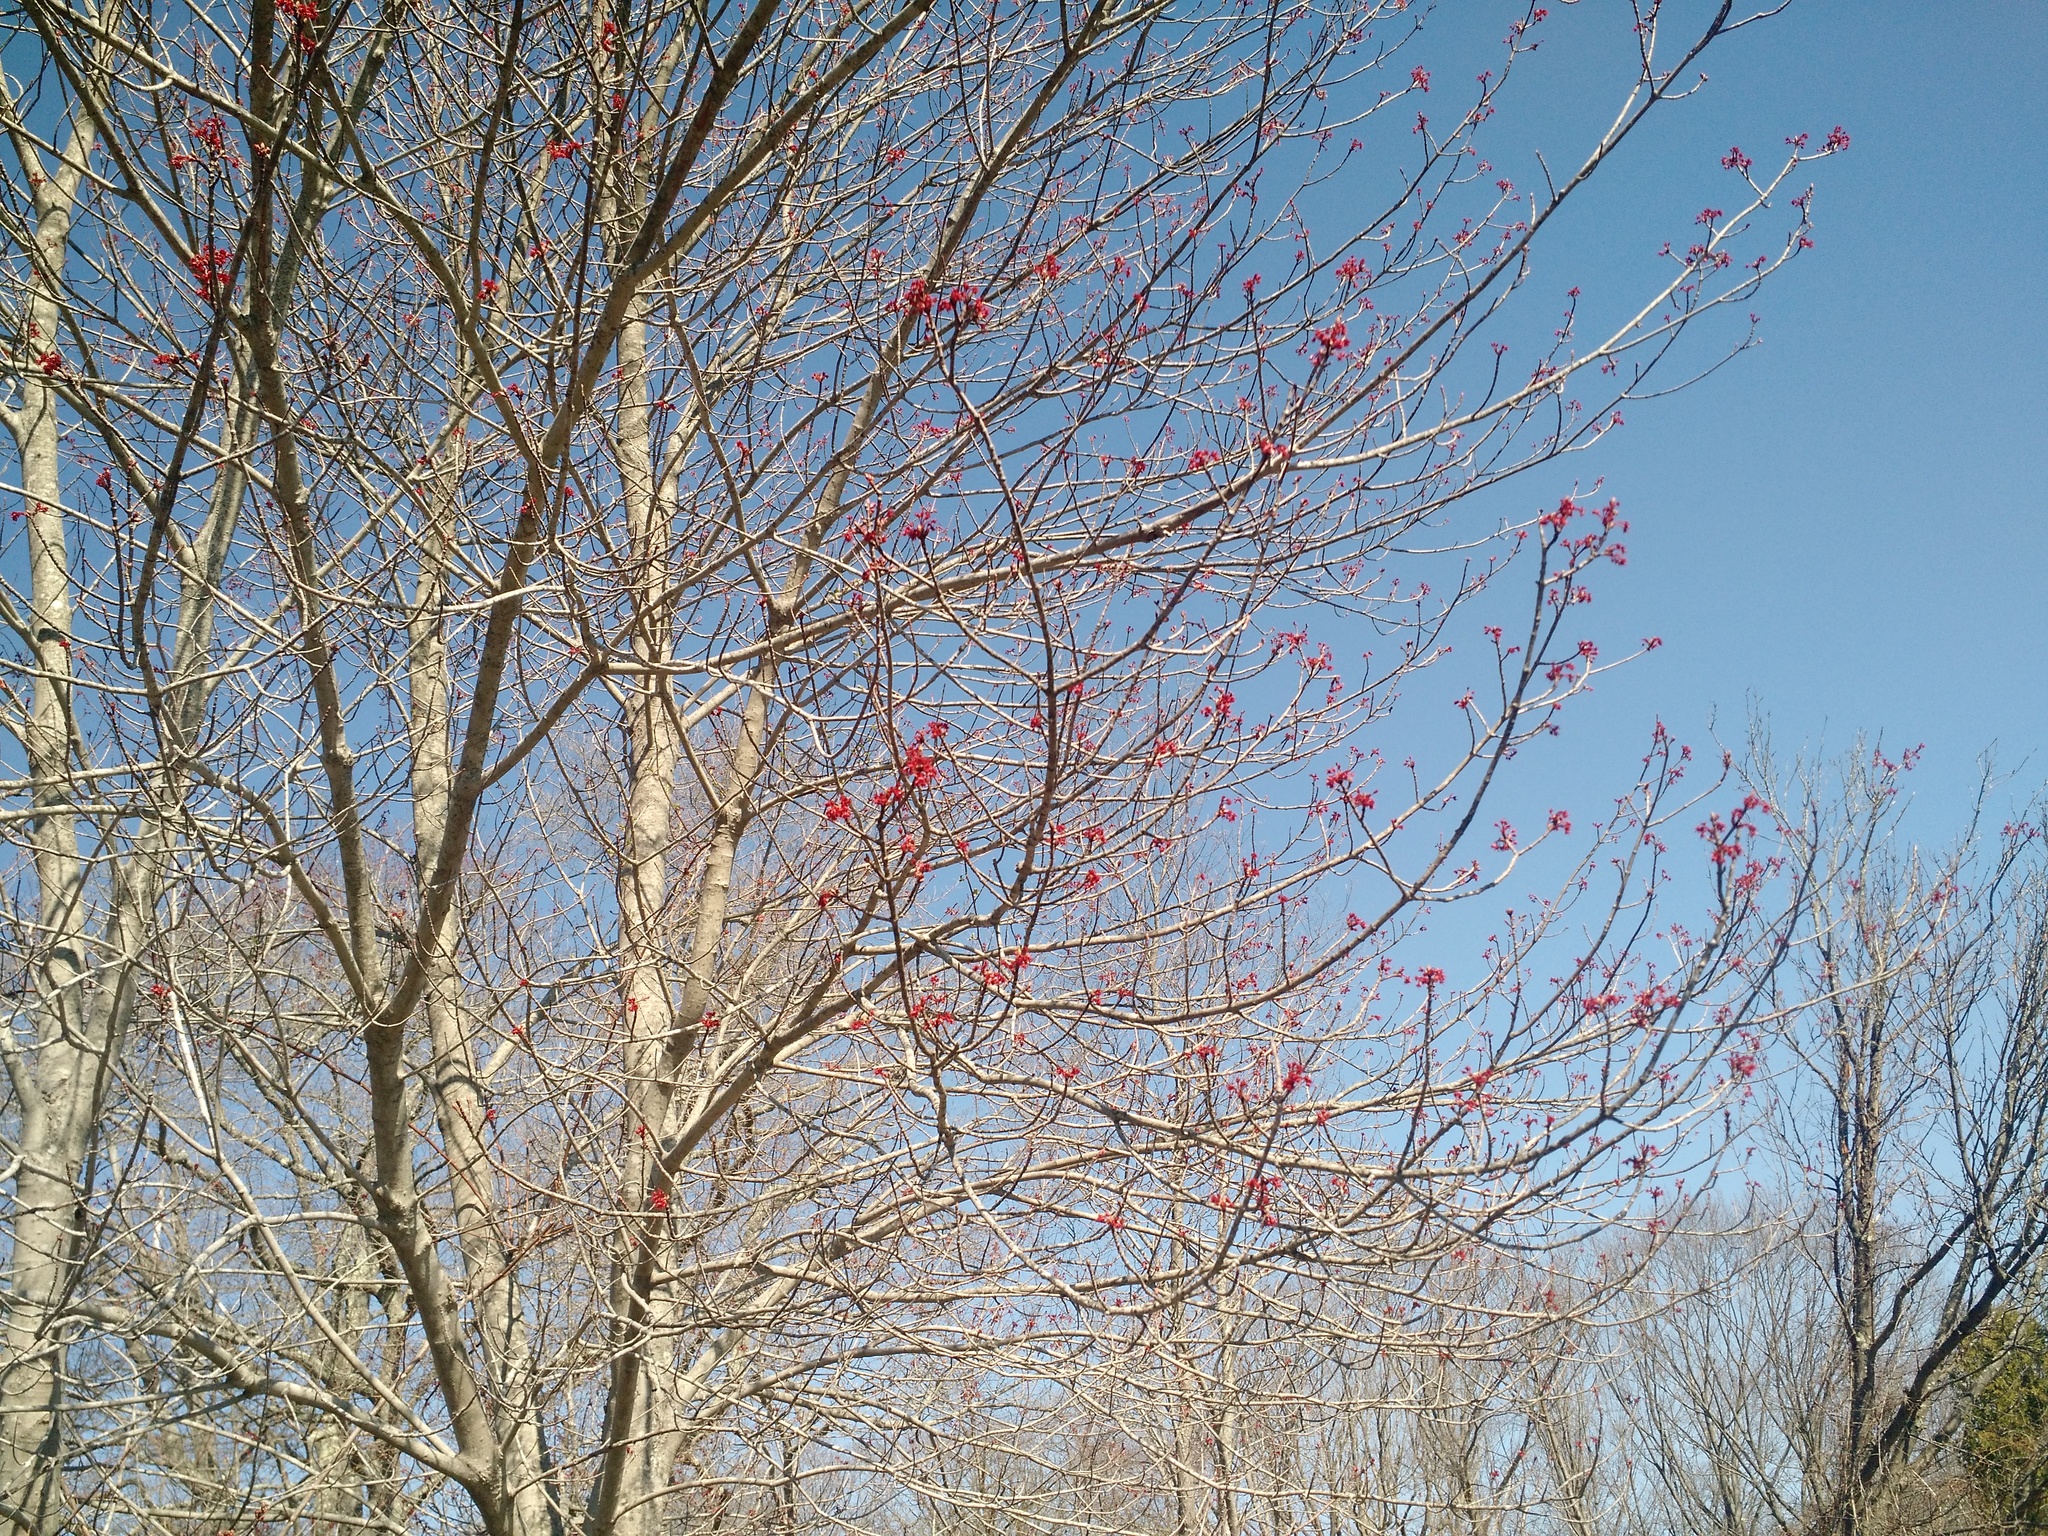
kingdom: Plantae
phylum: Tracheophyta
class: Magnoliopsida
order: Sapindales
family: Sapindaceae
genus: Acer
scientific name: Acer rubrum
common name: Red maple
